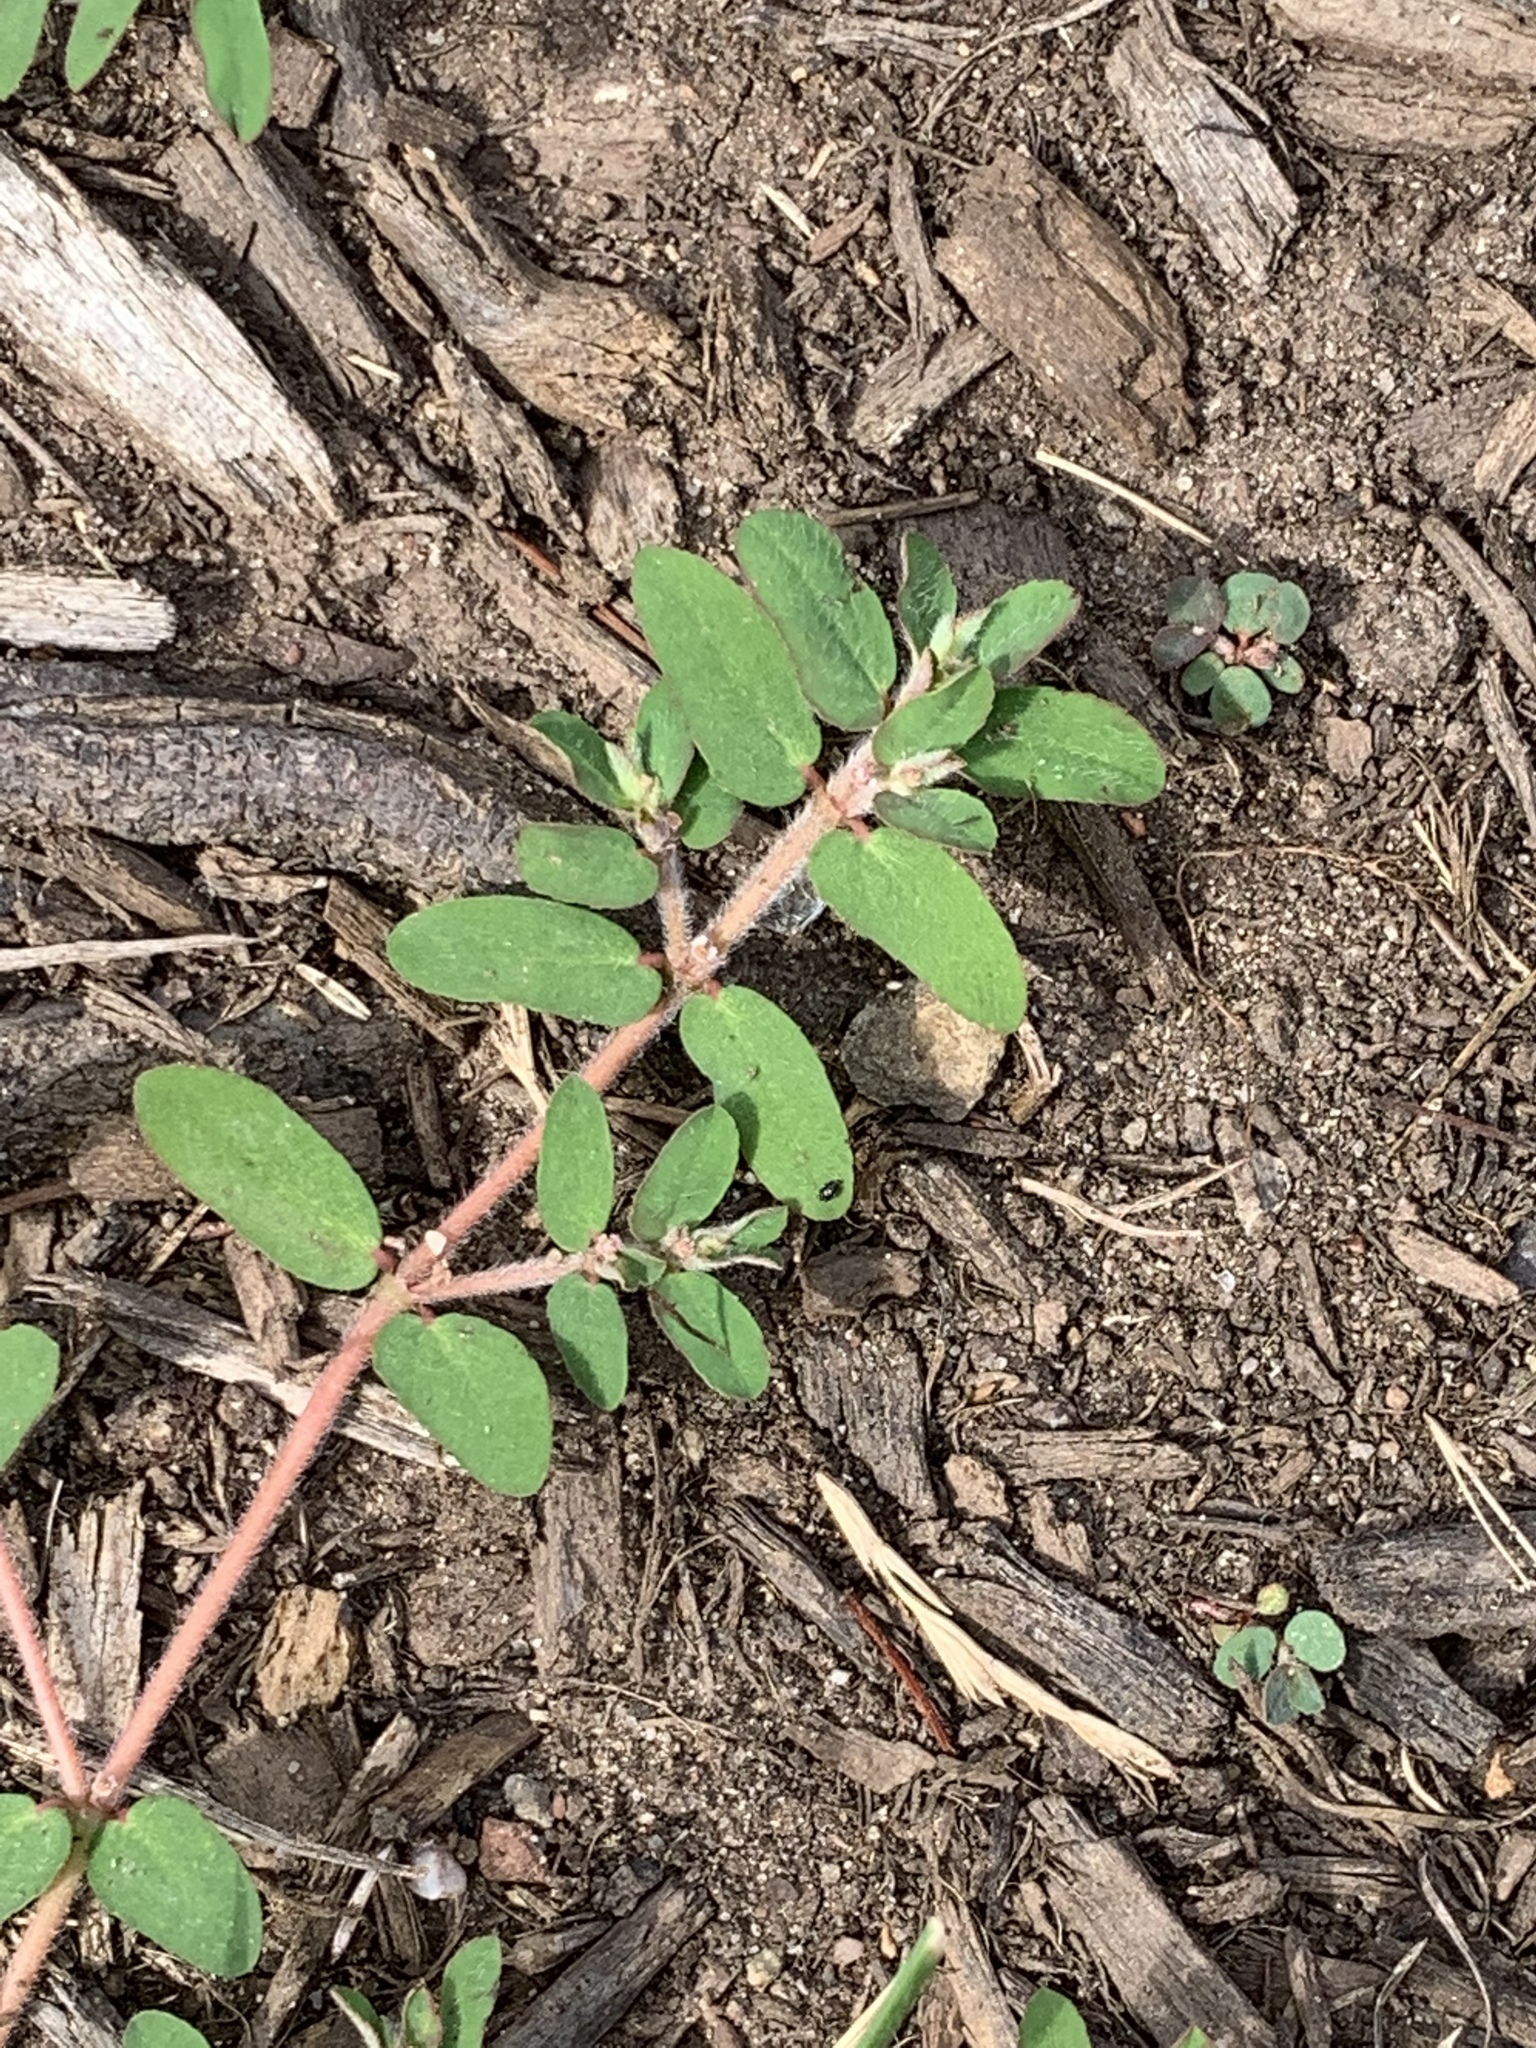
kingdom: Plantae
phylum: Tracheophyta
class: Magnoliopsida
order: Malpighiales
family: Euphorbiaceae
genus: Euphorbia
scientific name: Euphorbia maculata
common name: Spotted spurge
